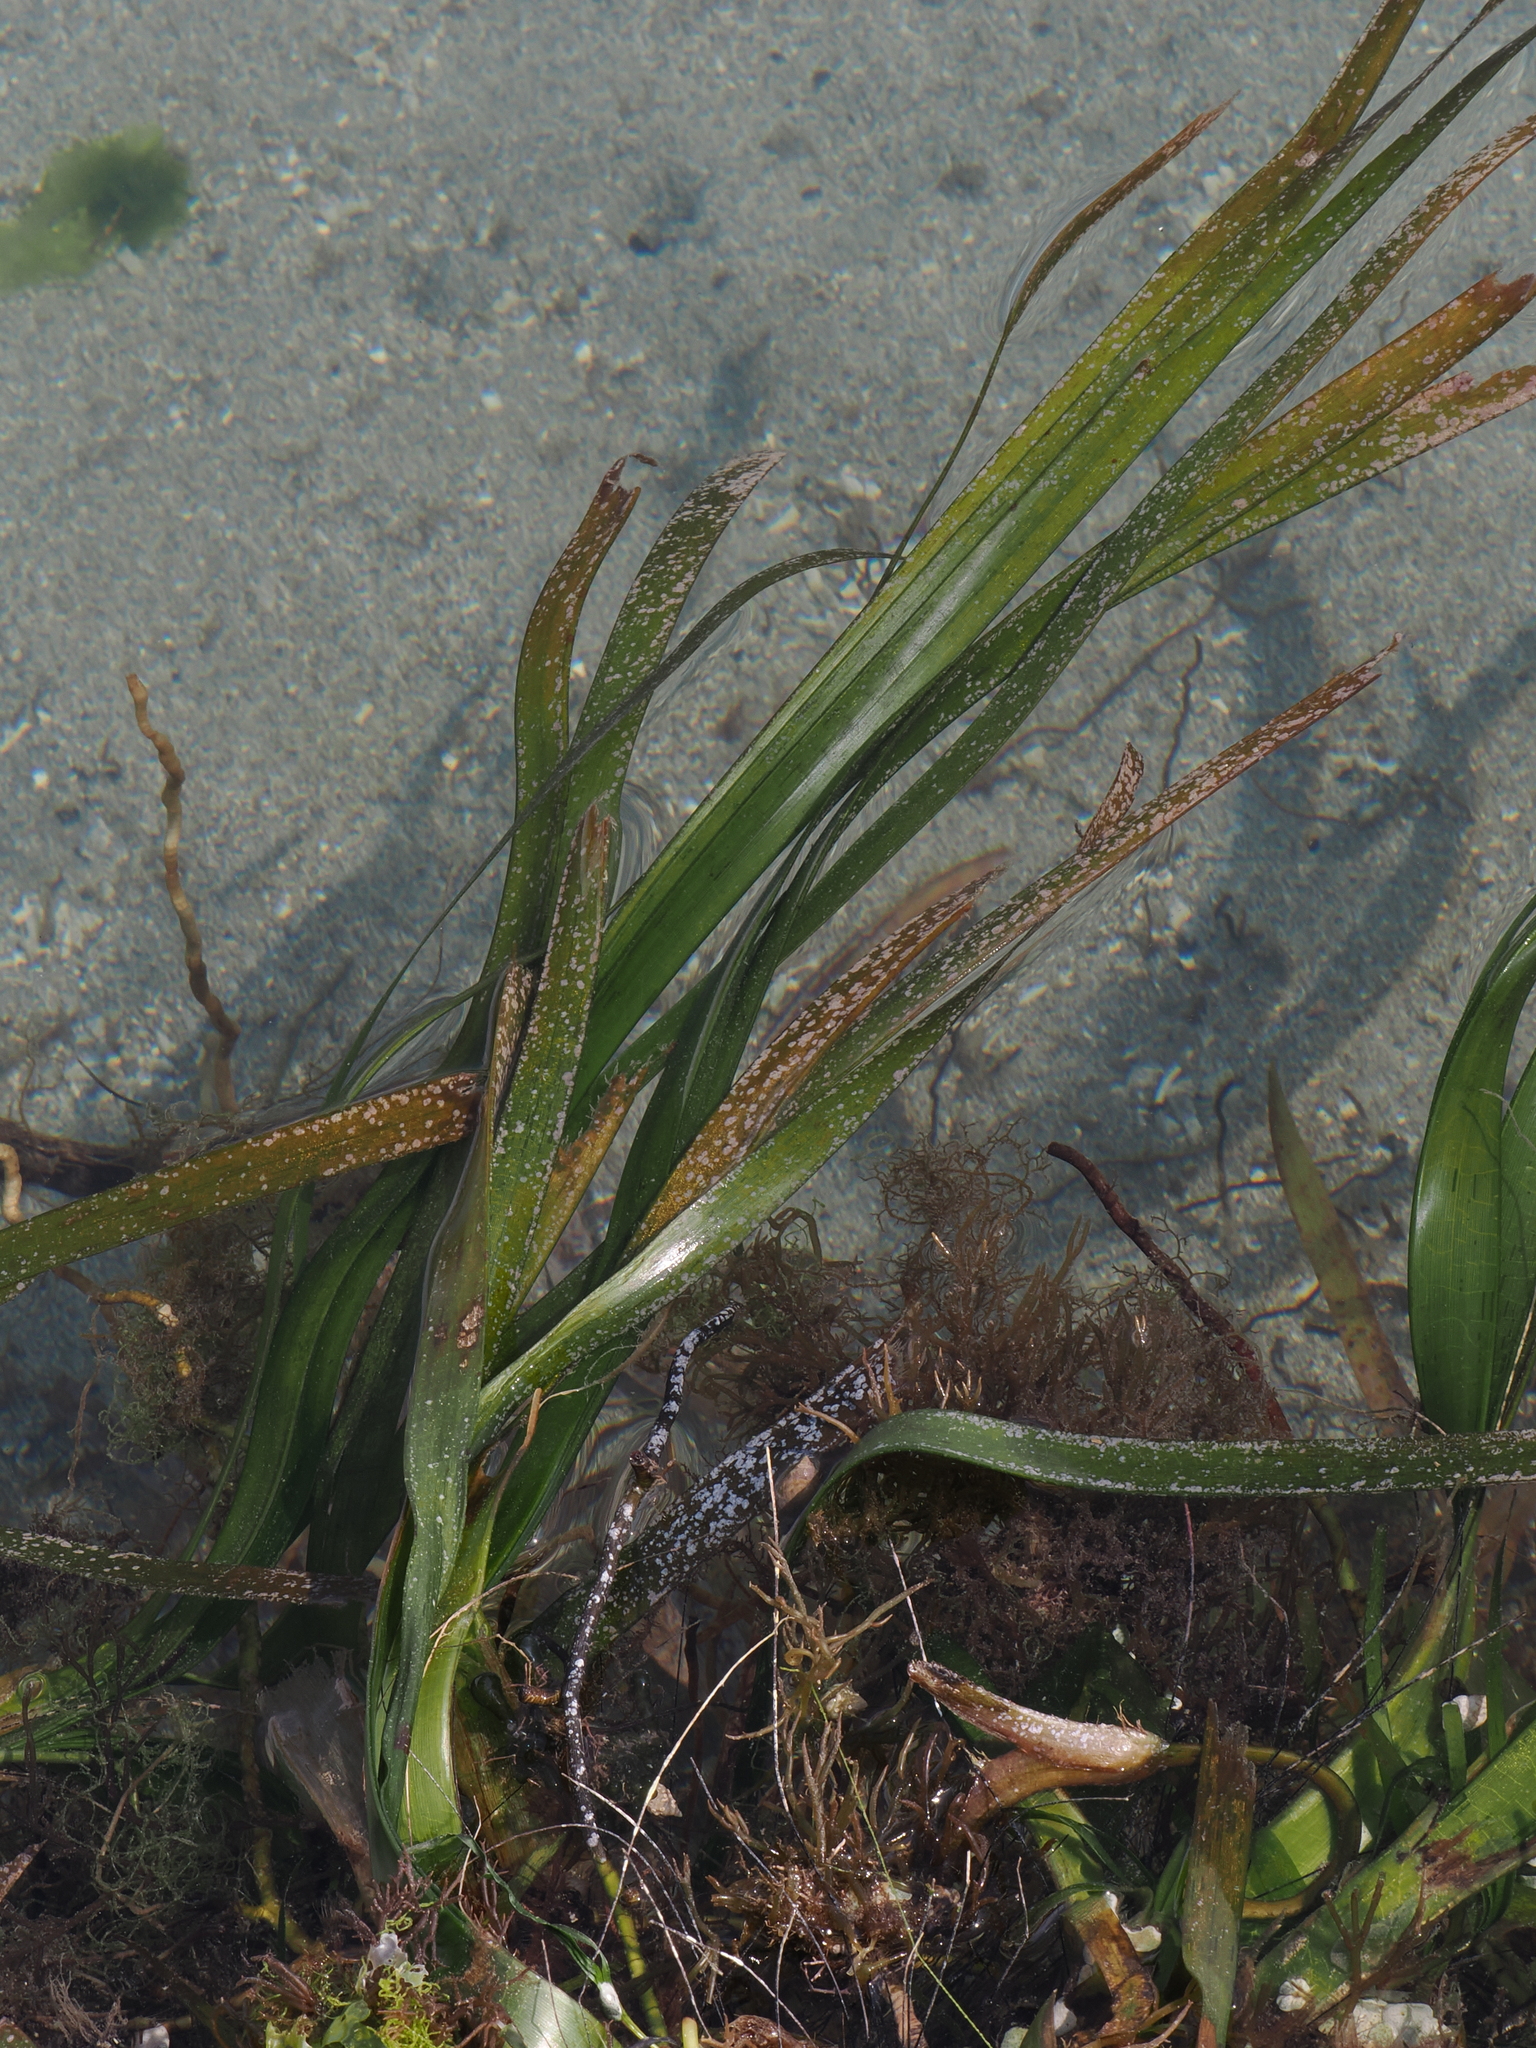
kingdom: Plantae
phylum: Tracheophyta
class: Liliopsida
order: Alismatales
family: Hydrocharitaceae
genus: Enhalus
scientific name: Enhalus acoroides
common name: Species code: ea
